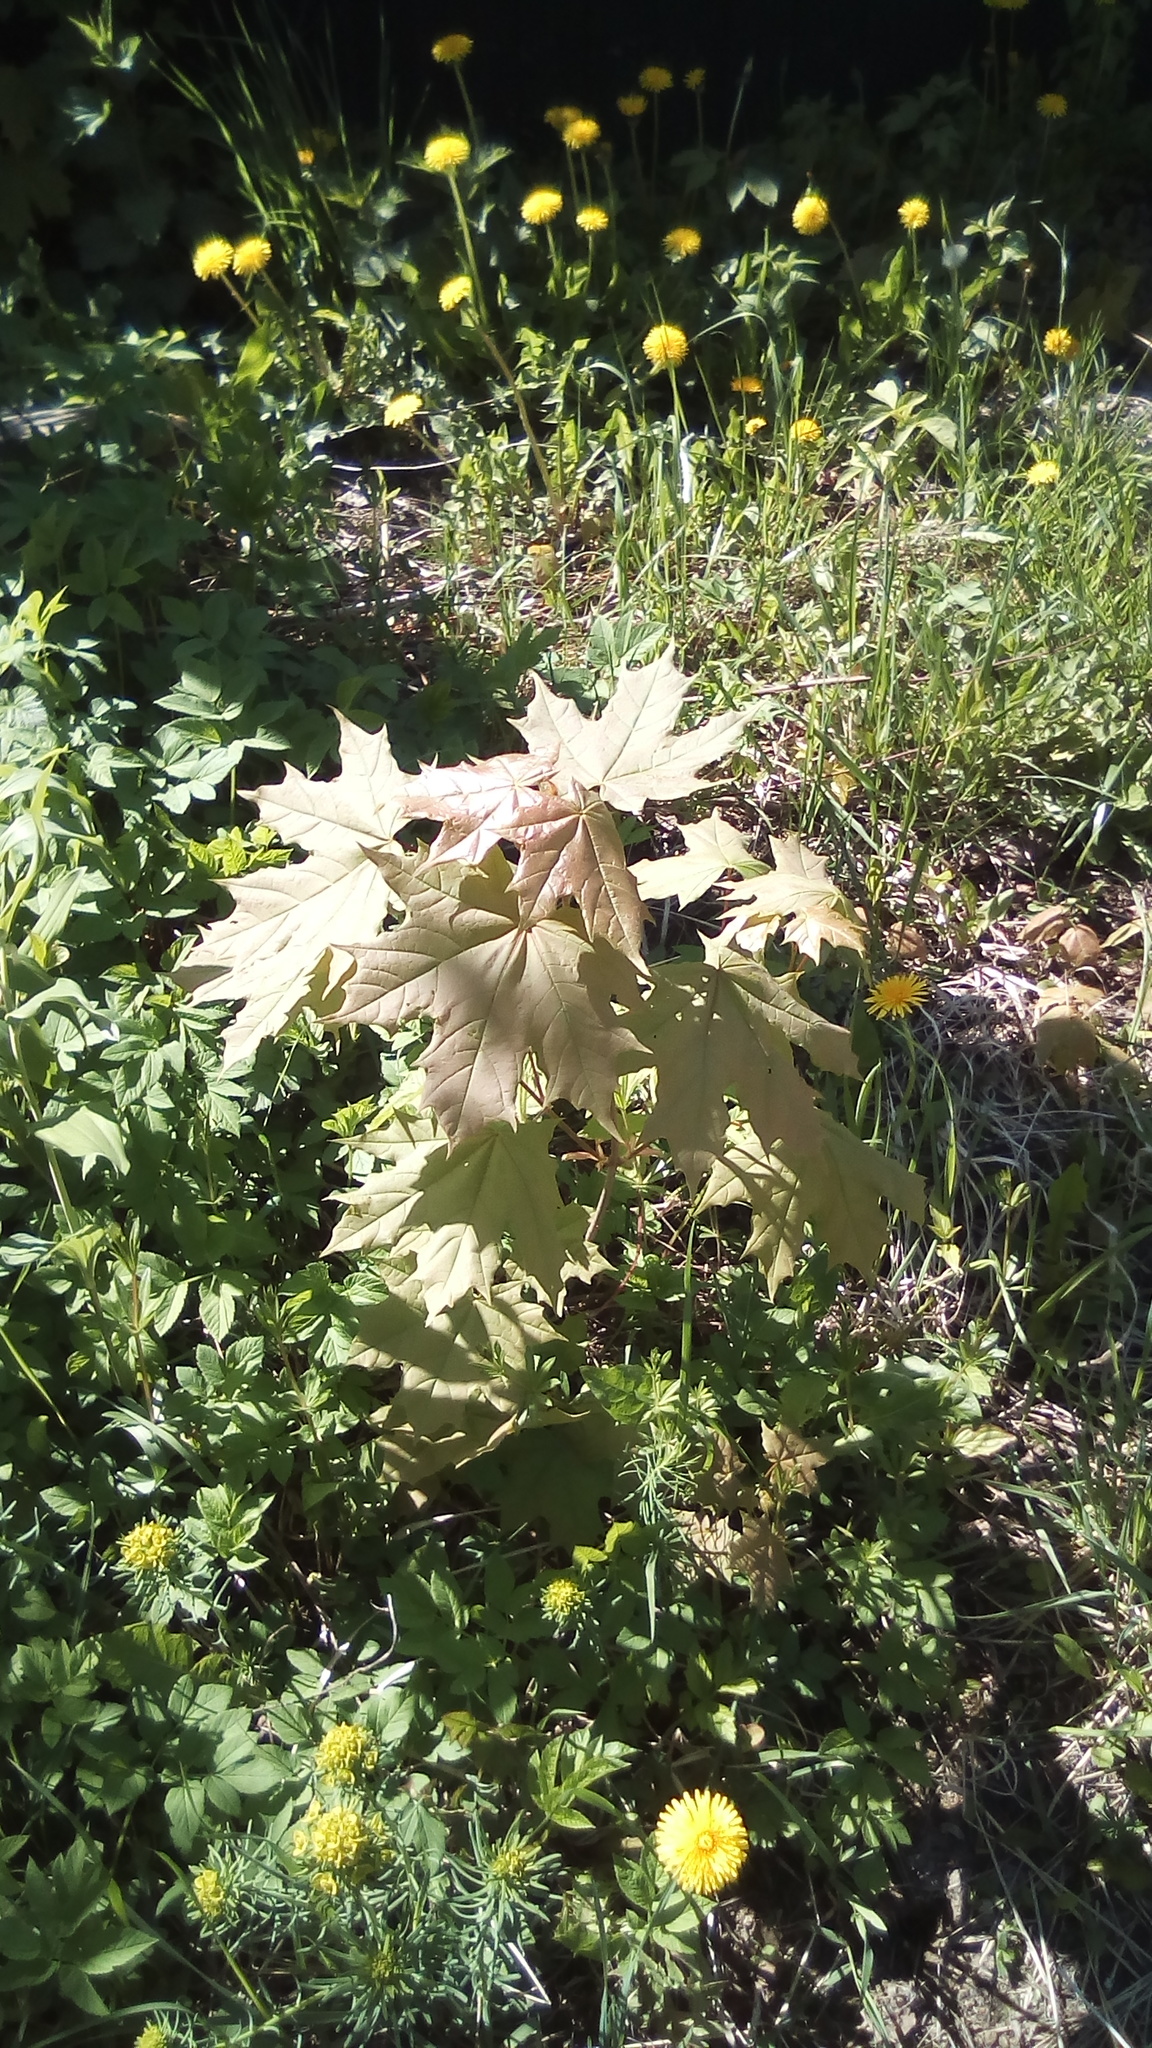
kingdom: Plantae
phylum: Tracheophyta
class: Magnoliopsida
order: Sapindales
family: Sapindaceae
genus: Acer
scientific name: Acer platanoides
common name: Norway maple
